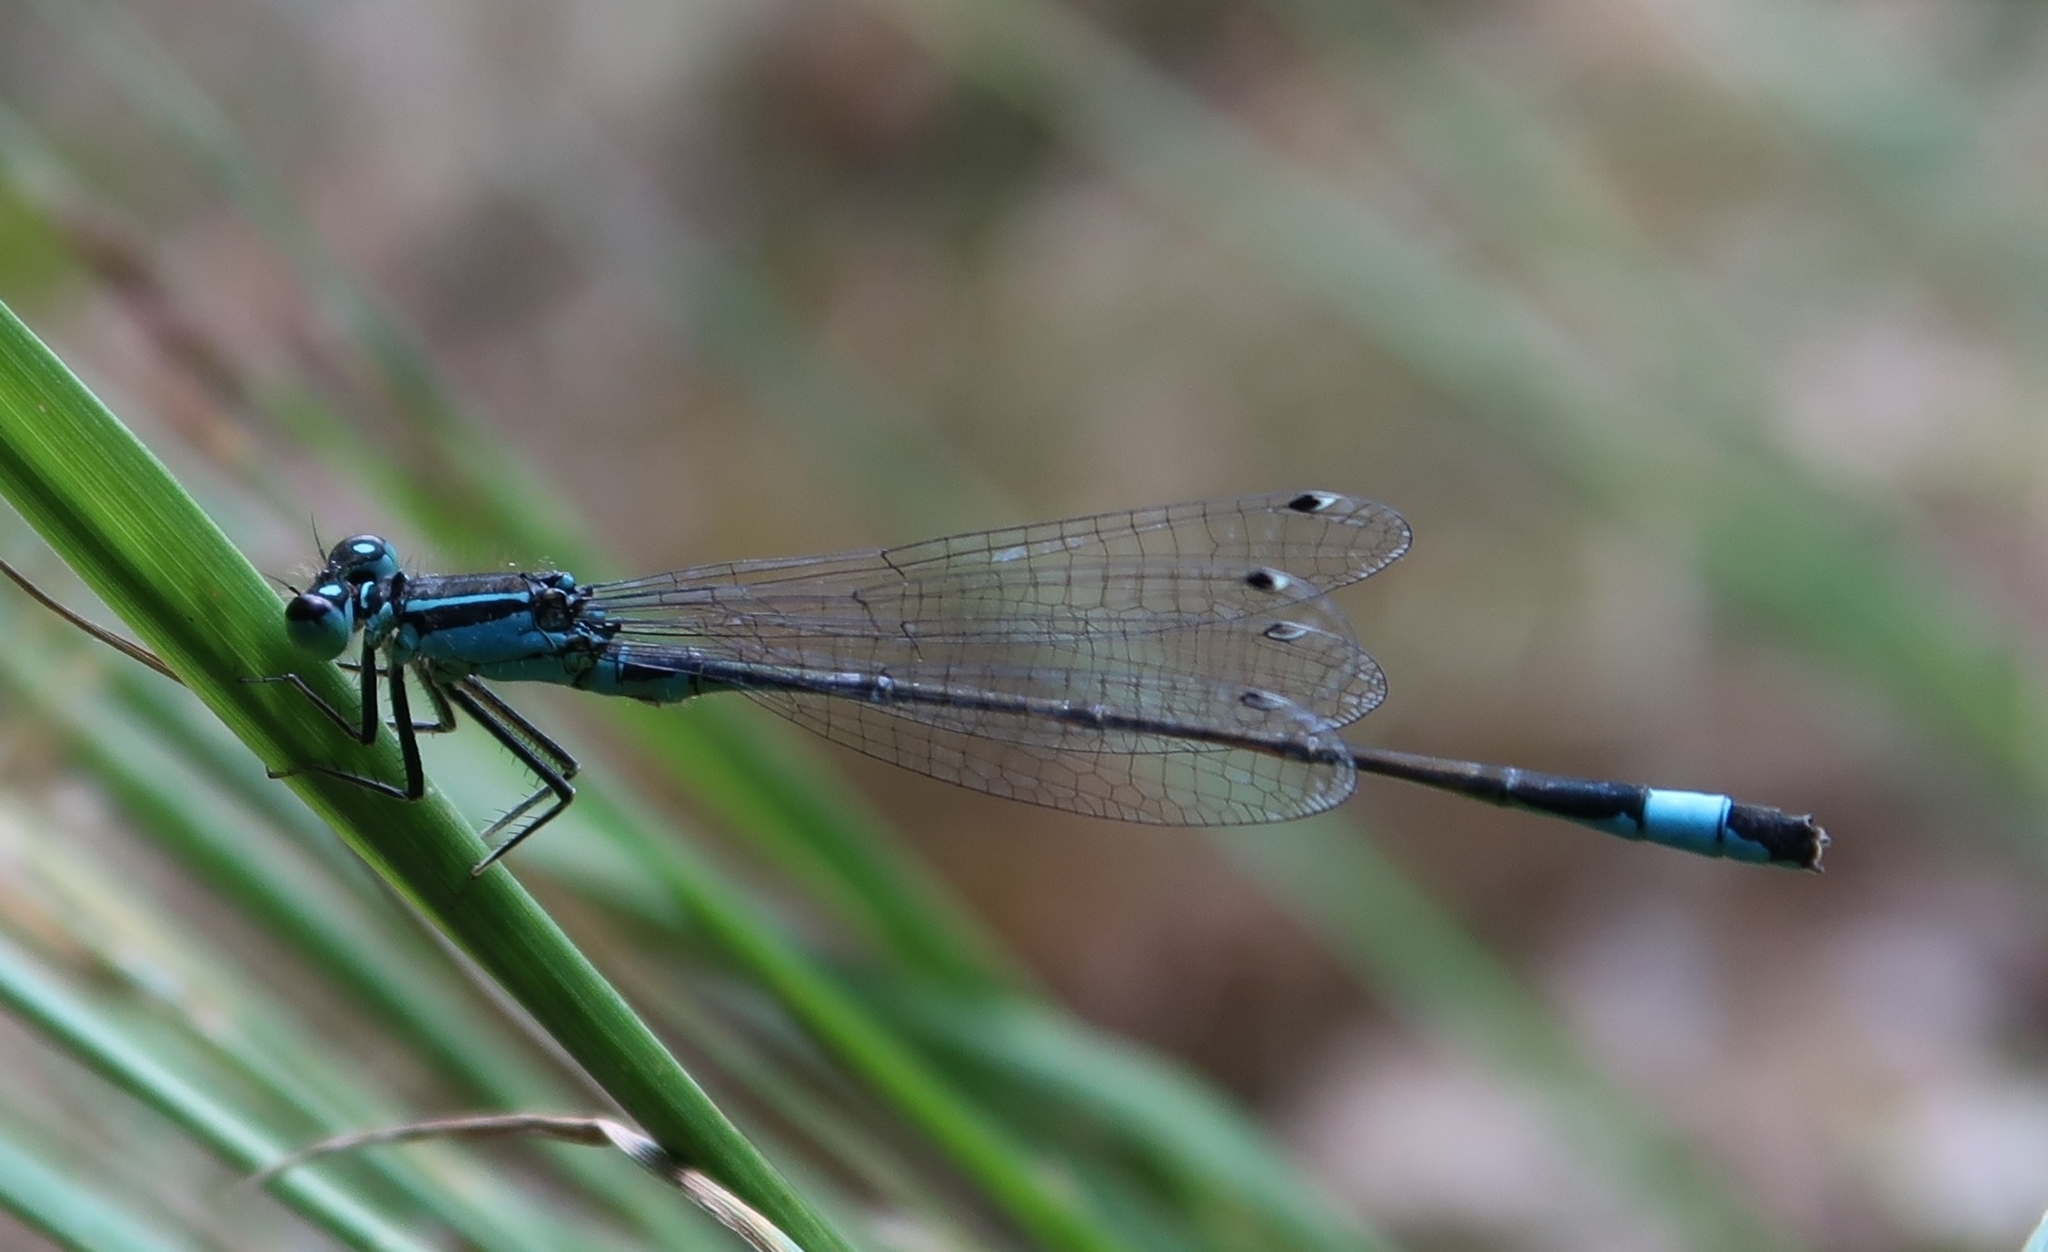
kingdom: Animalia
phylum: Arthropoda
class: Insecta
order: Odonata
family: Coenagrionidae
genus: Ischnura
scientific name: Ischnura elegans
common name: Blue-tailed damselfly
